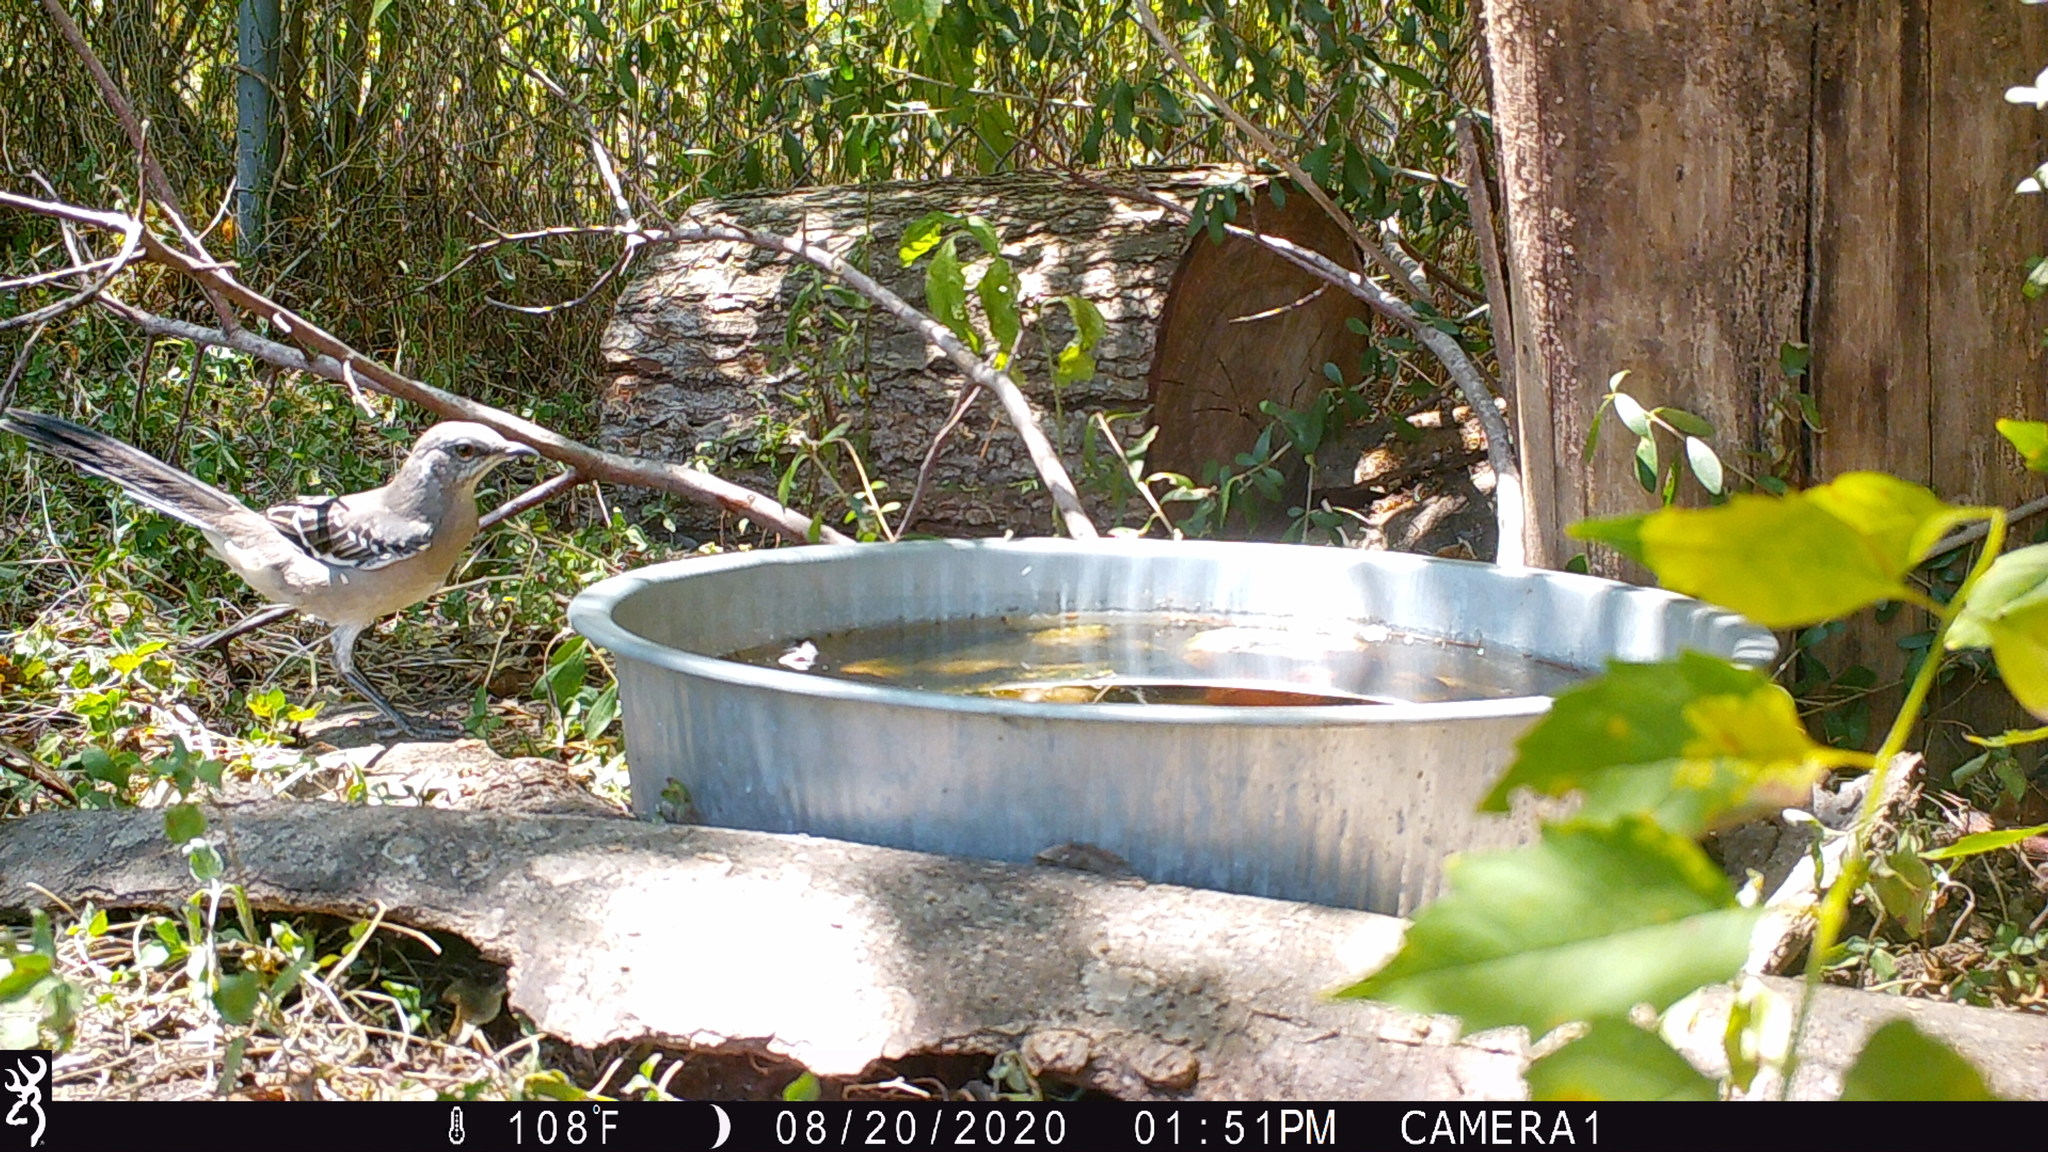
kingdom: Animalia
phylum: Chordata
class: Aves
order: Passeriformes
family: Mimidae
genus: Mimus
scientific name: Mimus polyglottos
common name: Northern mockingbird
